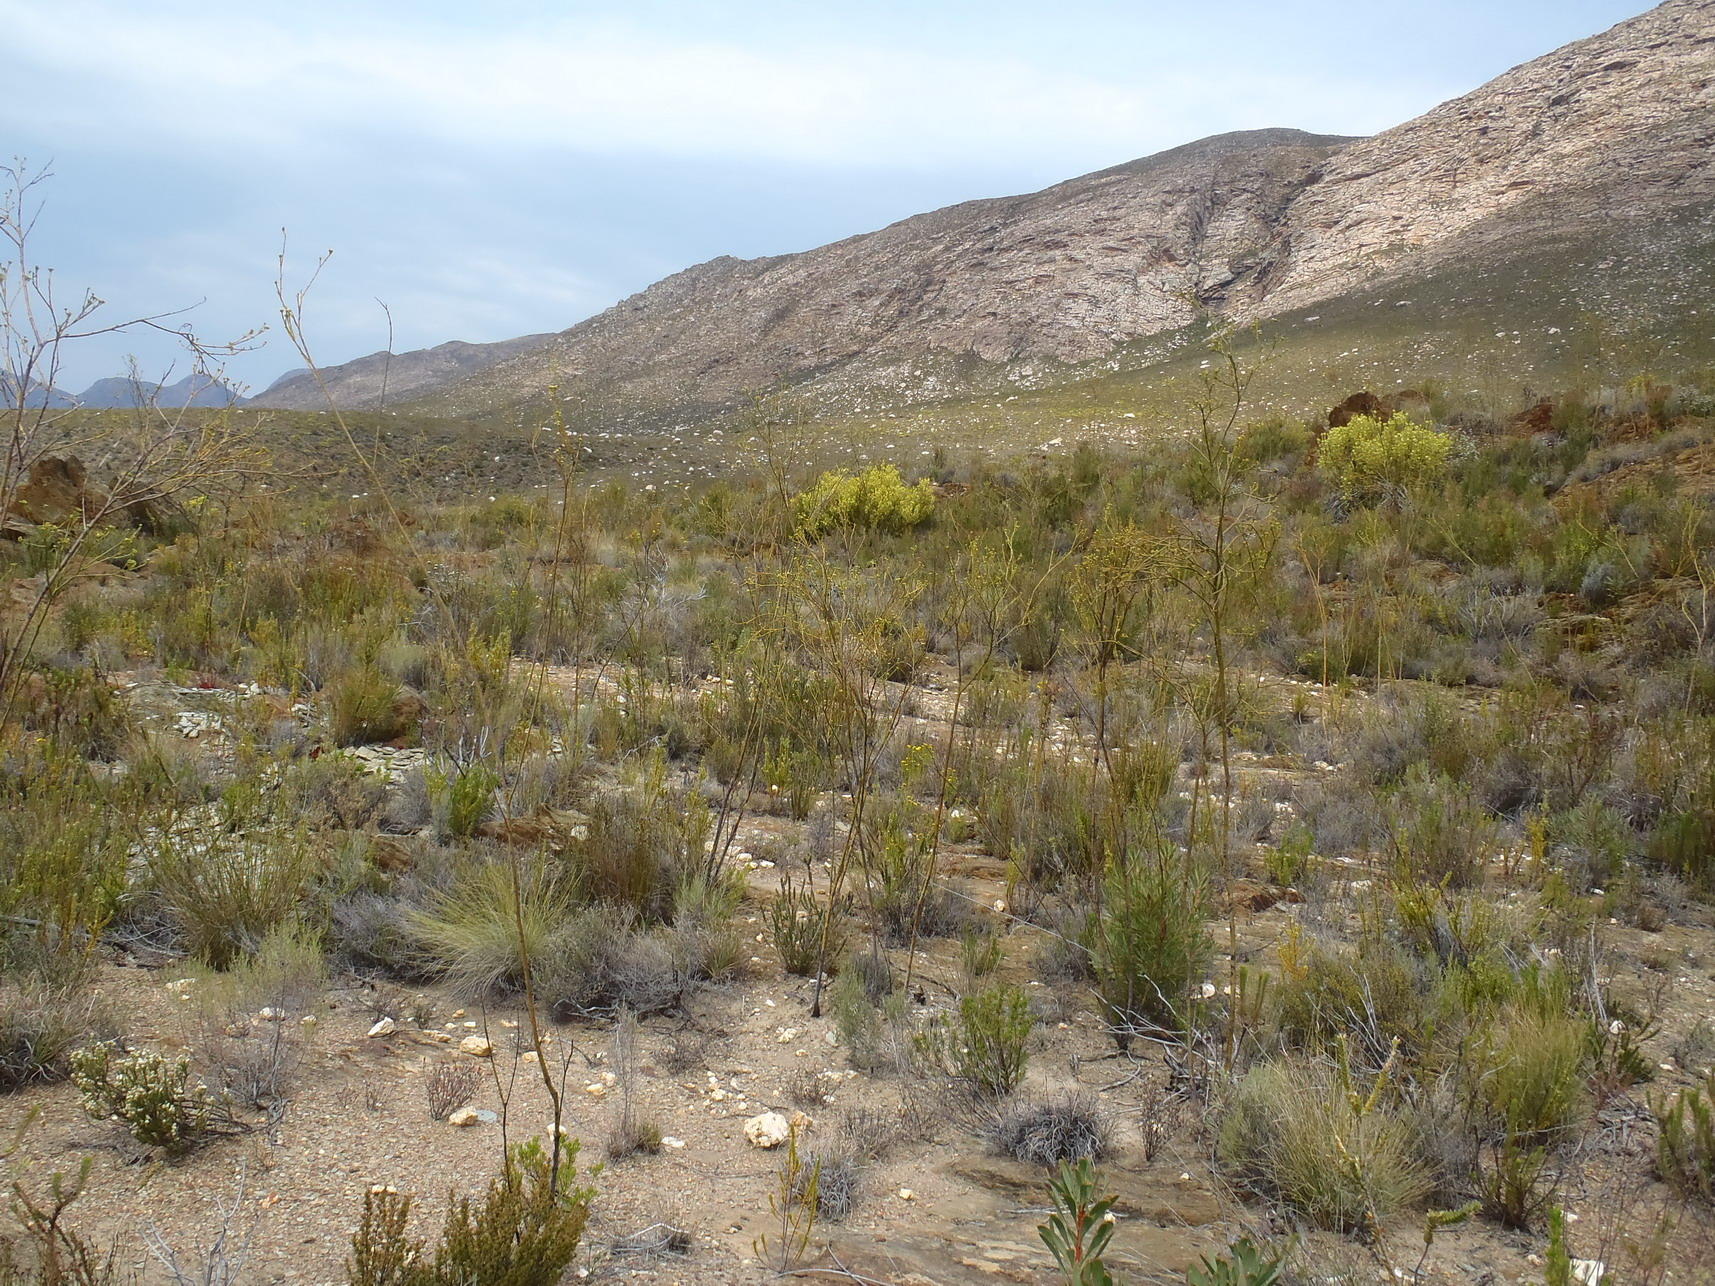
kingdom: Plantae
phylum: Tracheophyta
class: Magnoliopsida
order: Santalales
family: Thesiaceae
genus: Thesium
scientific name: Thesium strictum
